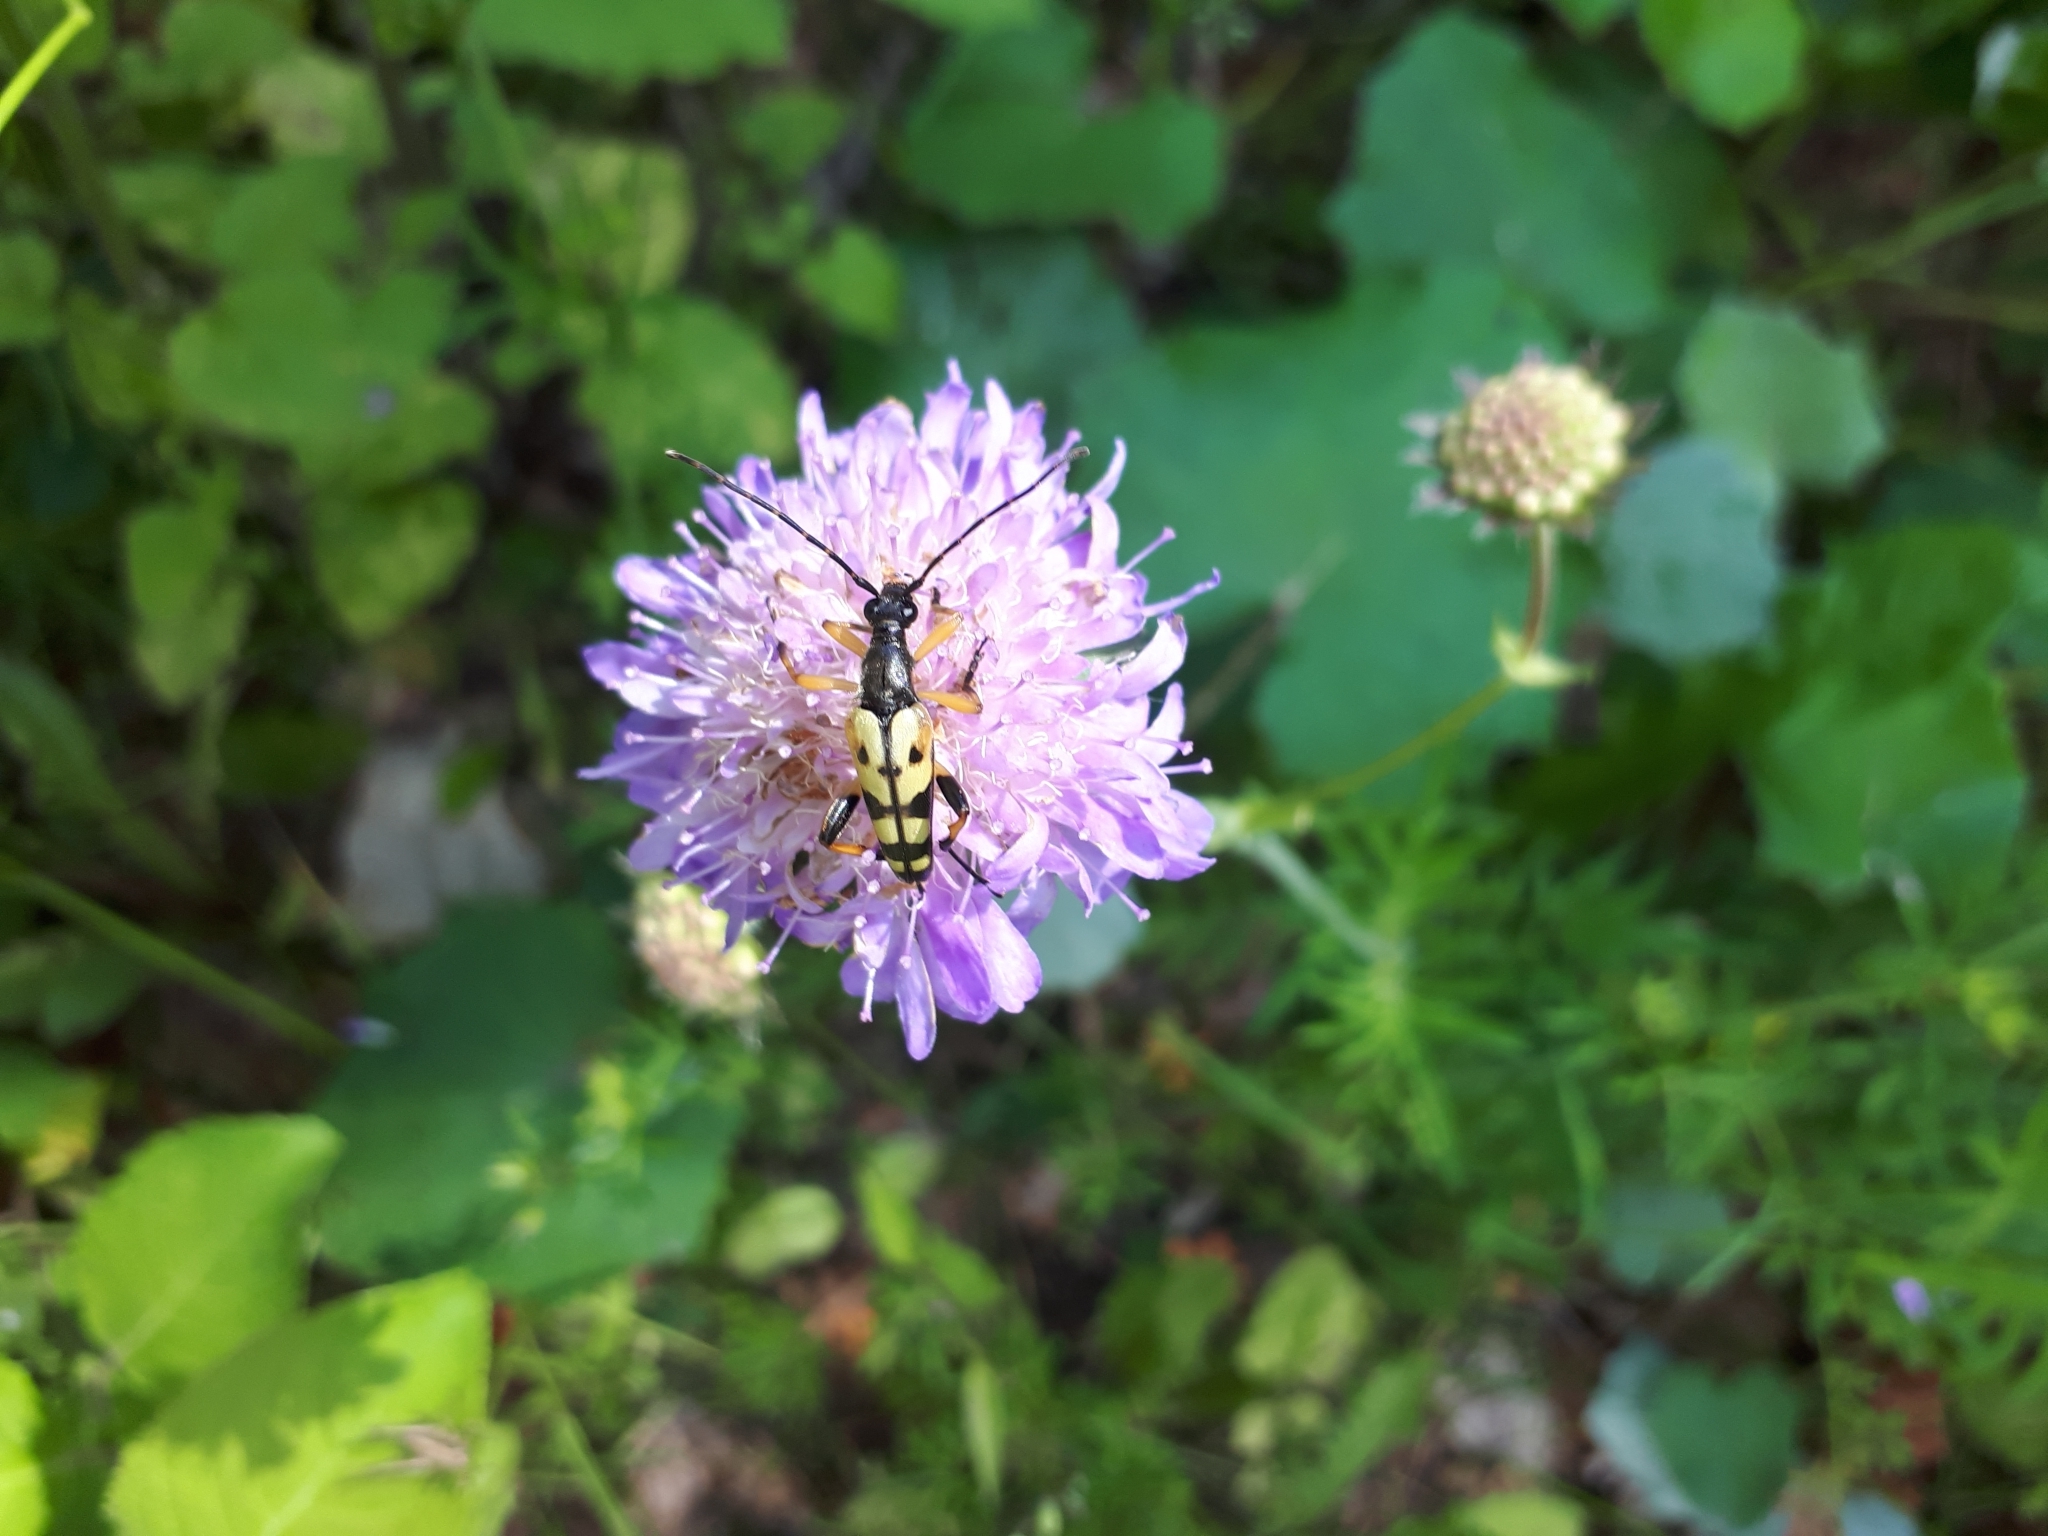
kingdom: Animalia
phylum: Arthropoda
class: Insecta
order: Coleoptera
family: Cerambycidae
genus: Rutpela
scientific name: Rutpela maculata
